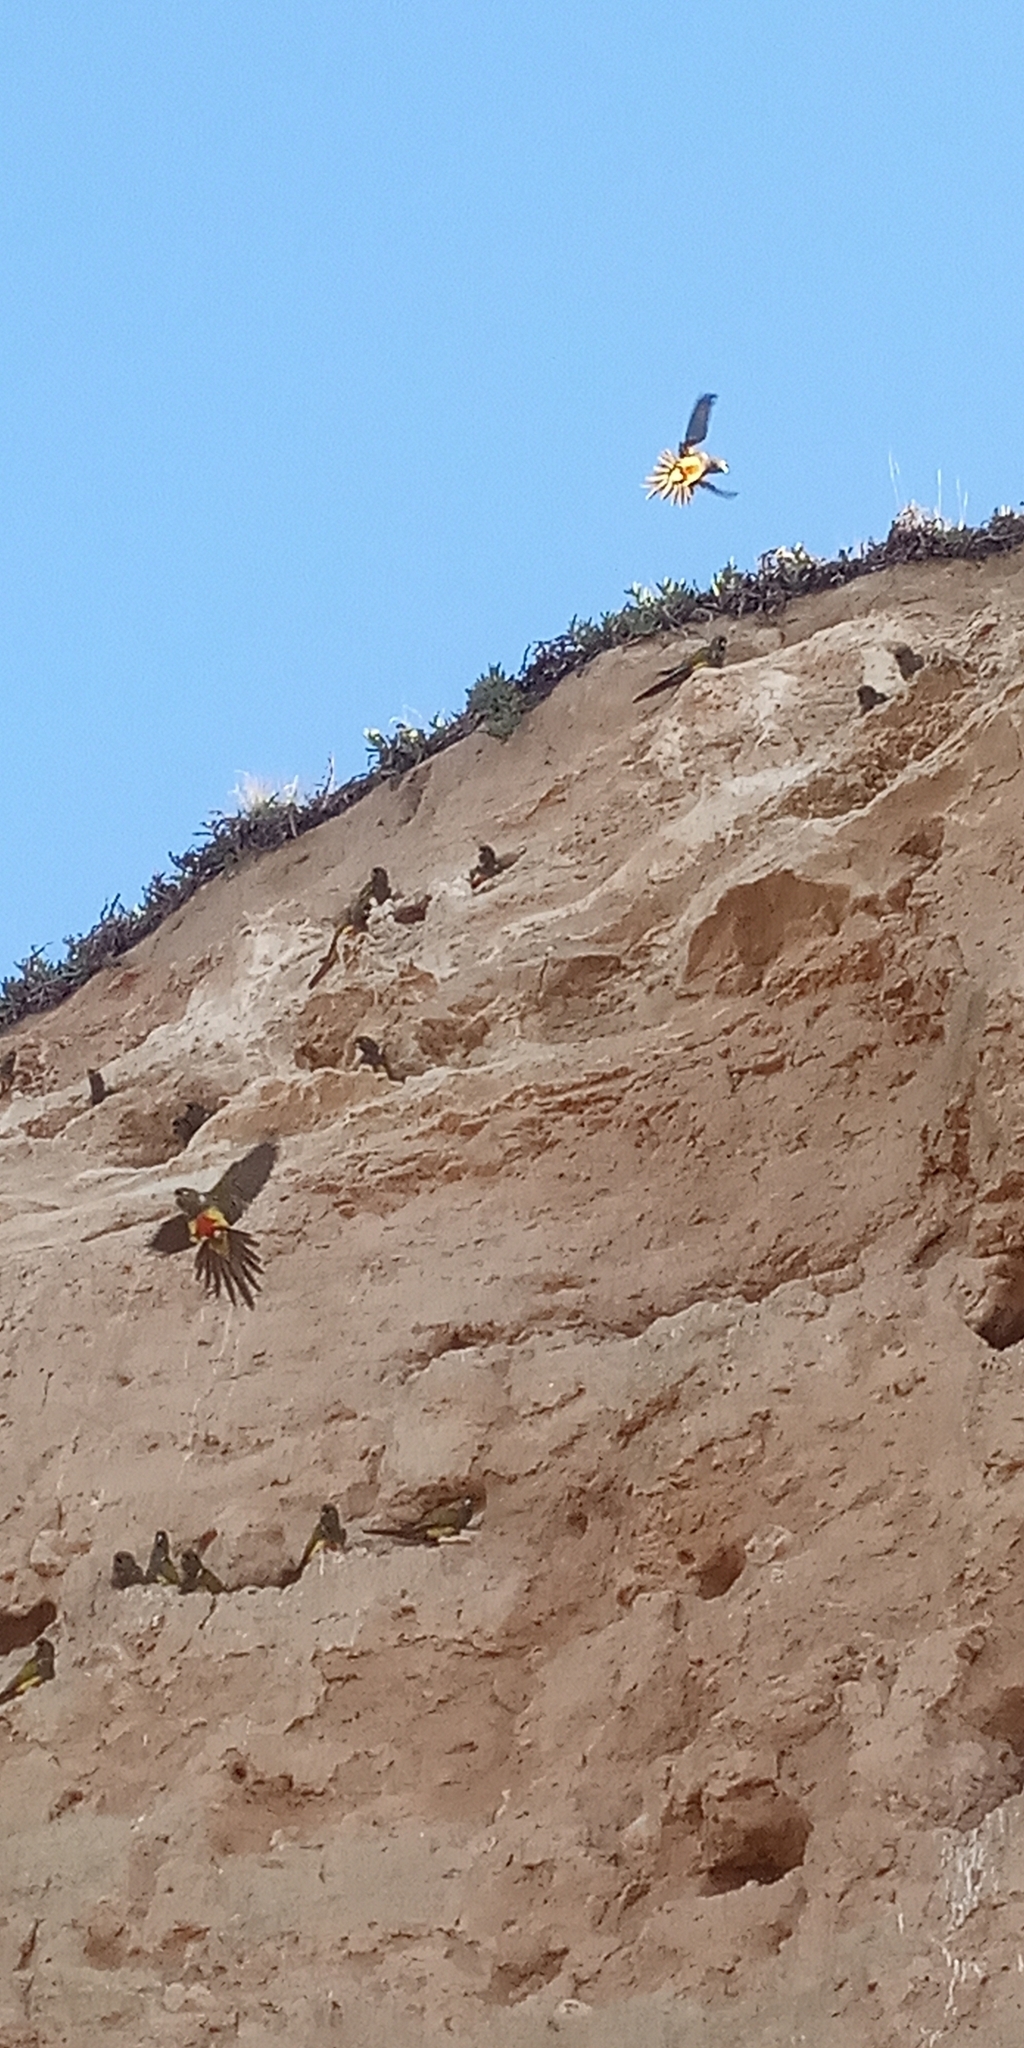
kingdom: Animalia
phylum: Chordata
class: Aves
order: Psittaciformes
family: Psittacidae
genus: Cyanoliseus
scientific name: Cyanoliseus patagonus
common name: Burrowing parrot
